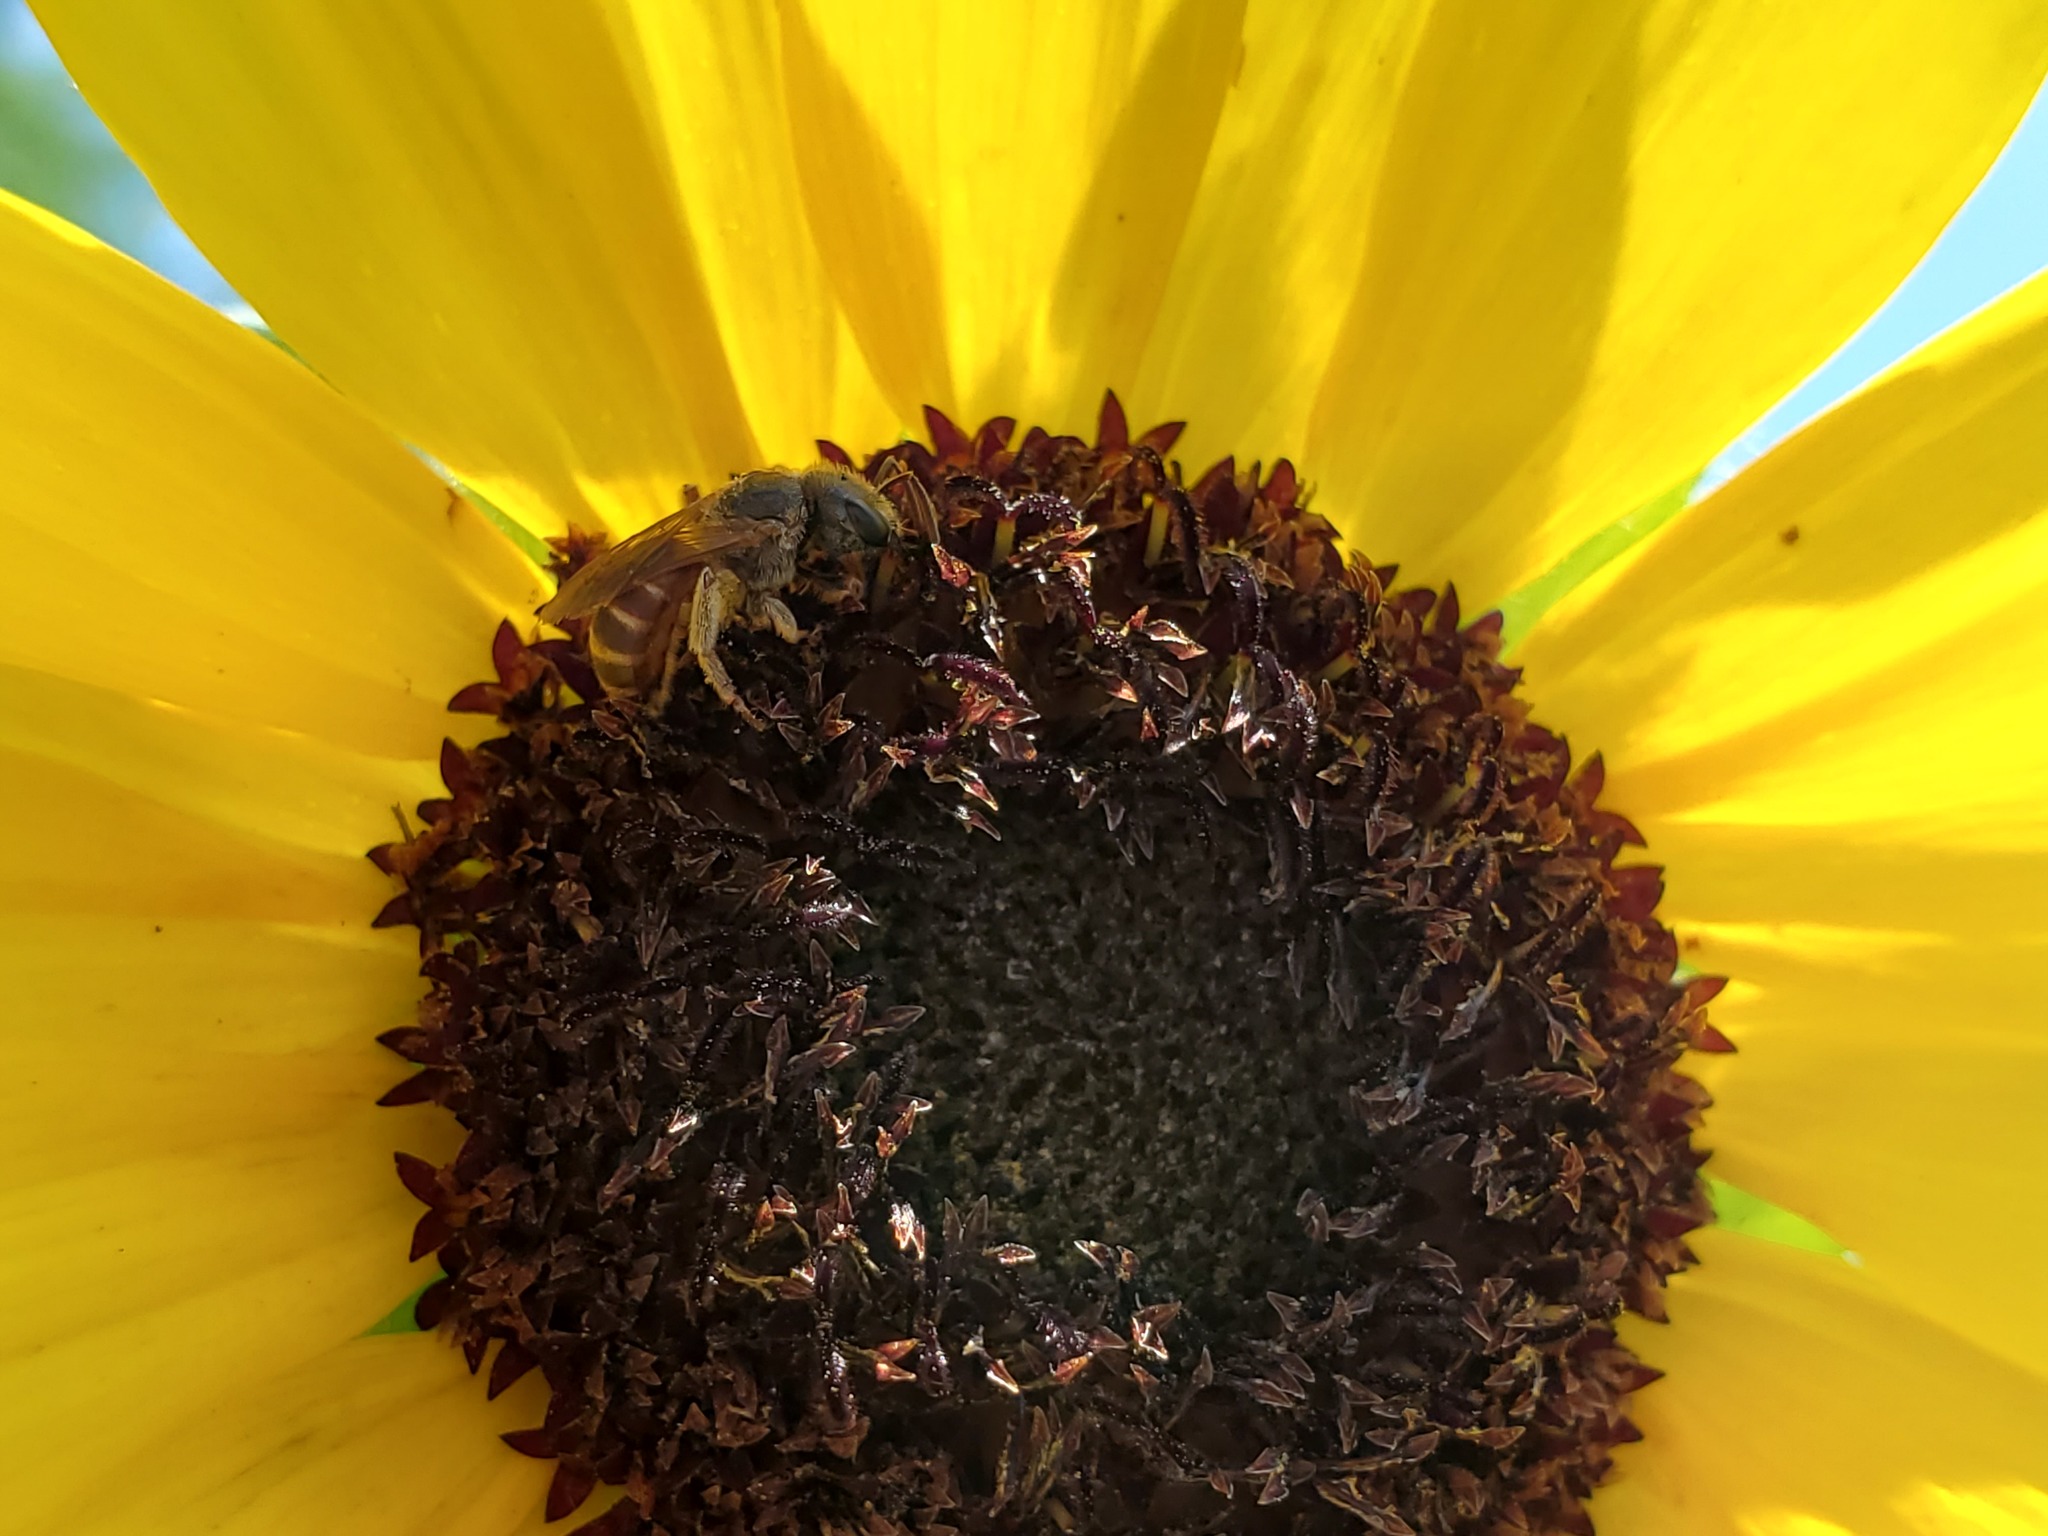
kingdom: Animalia
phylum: Arthropoda
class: Insecta
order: Hymenoptera
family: Halictidae
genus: Halictus
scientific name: Halictus ligatus
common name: Ligated furrow bee
